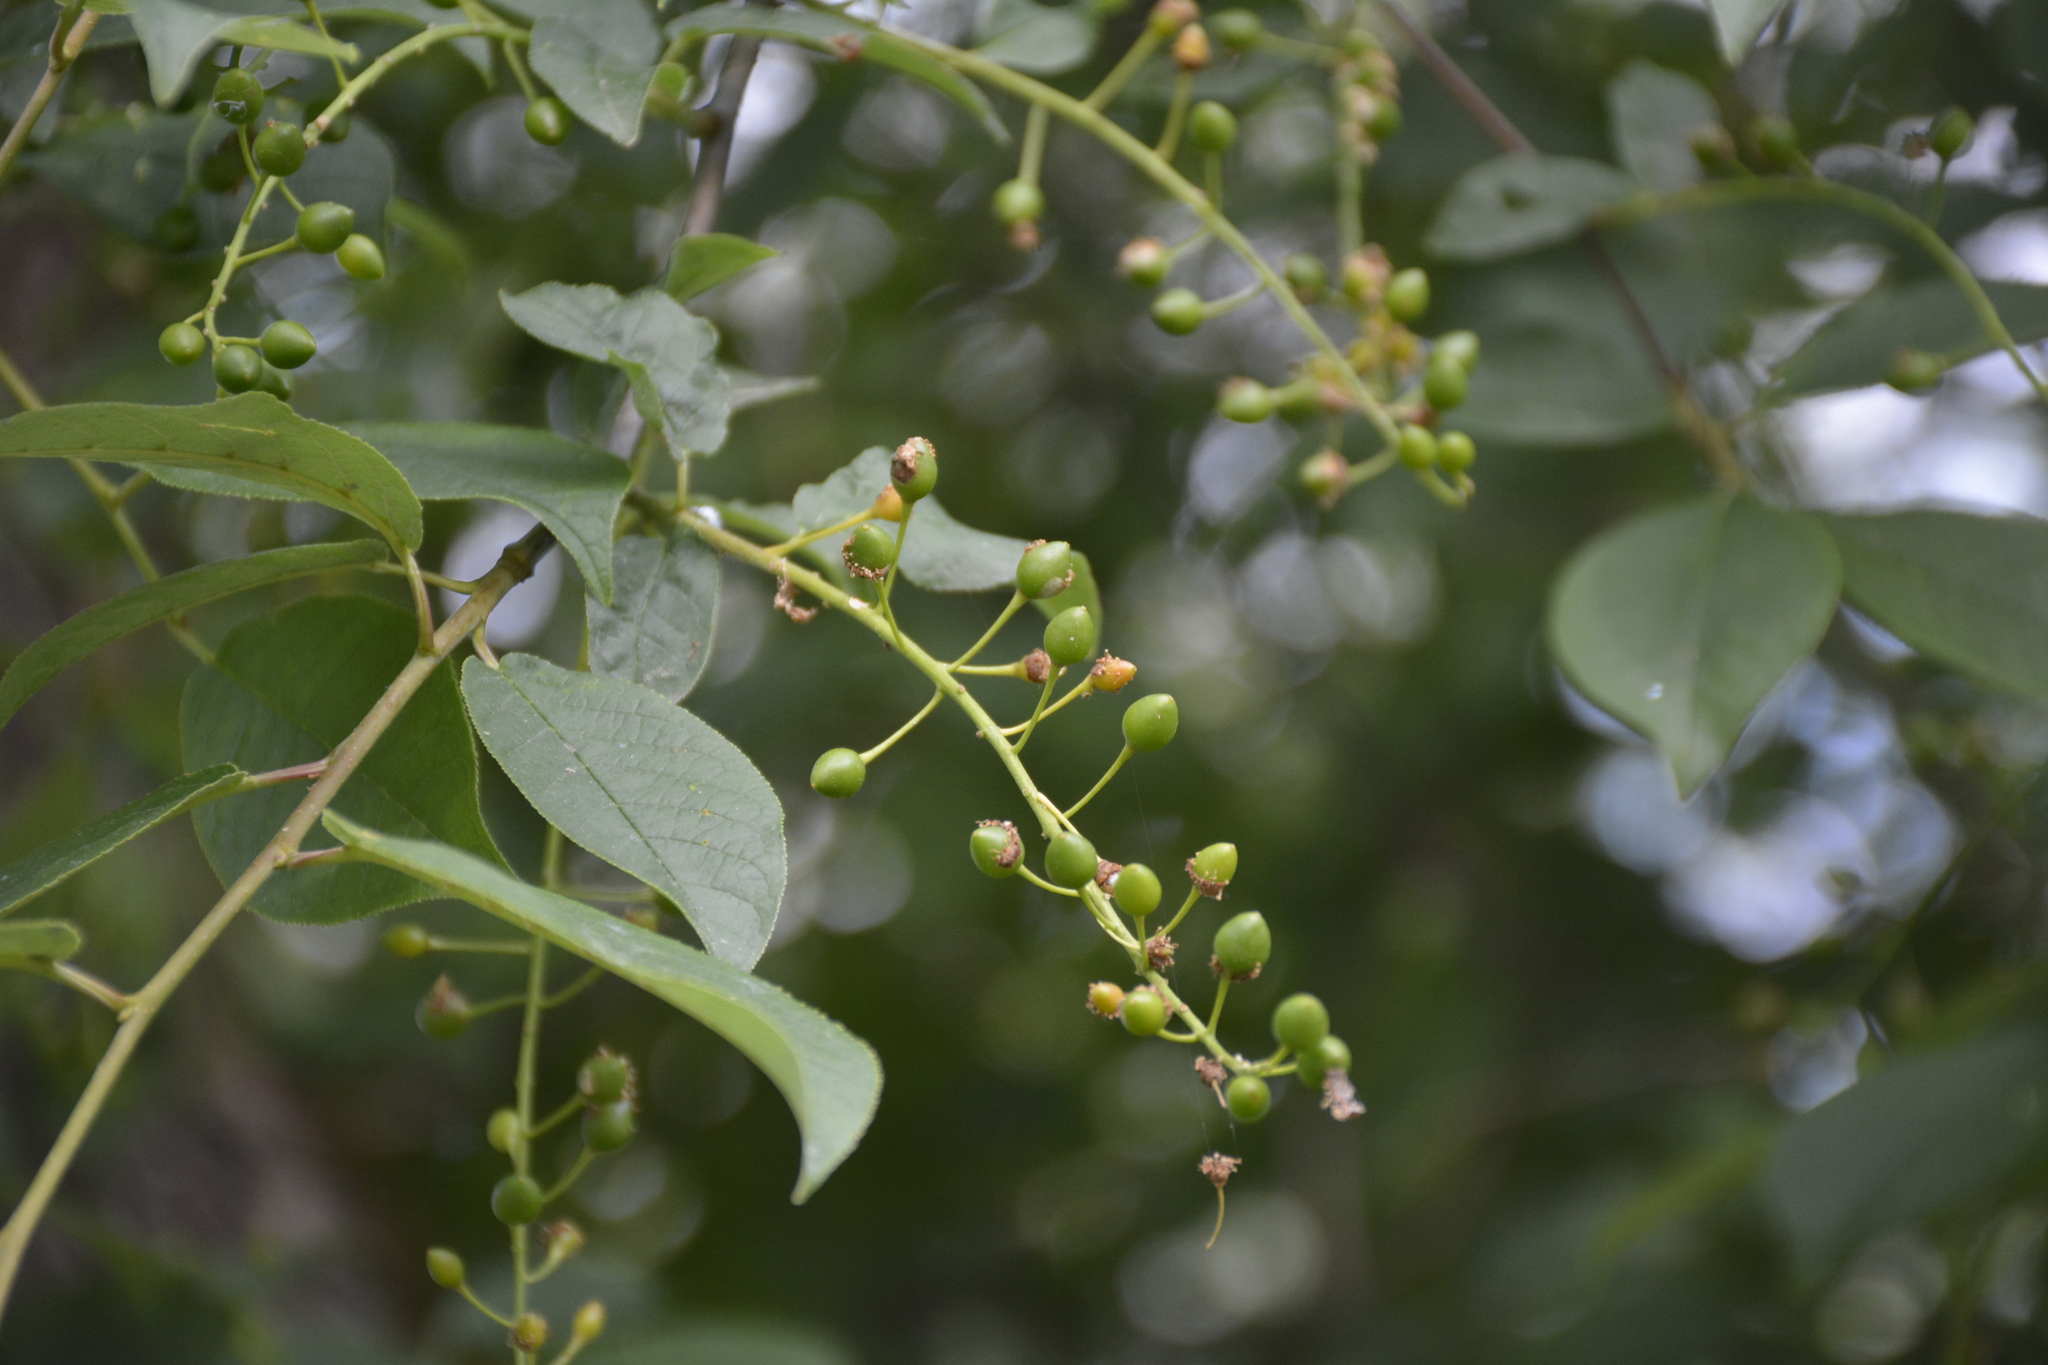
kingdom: Plantae
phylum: Tracheophyta
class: Magnoliopsida
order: Rosales
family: Rosaceae
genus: Prunus
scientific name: Prunus padus
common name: Bird cherry
